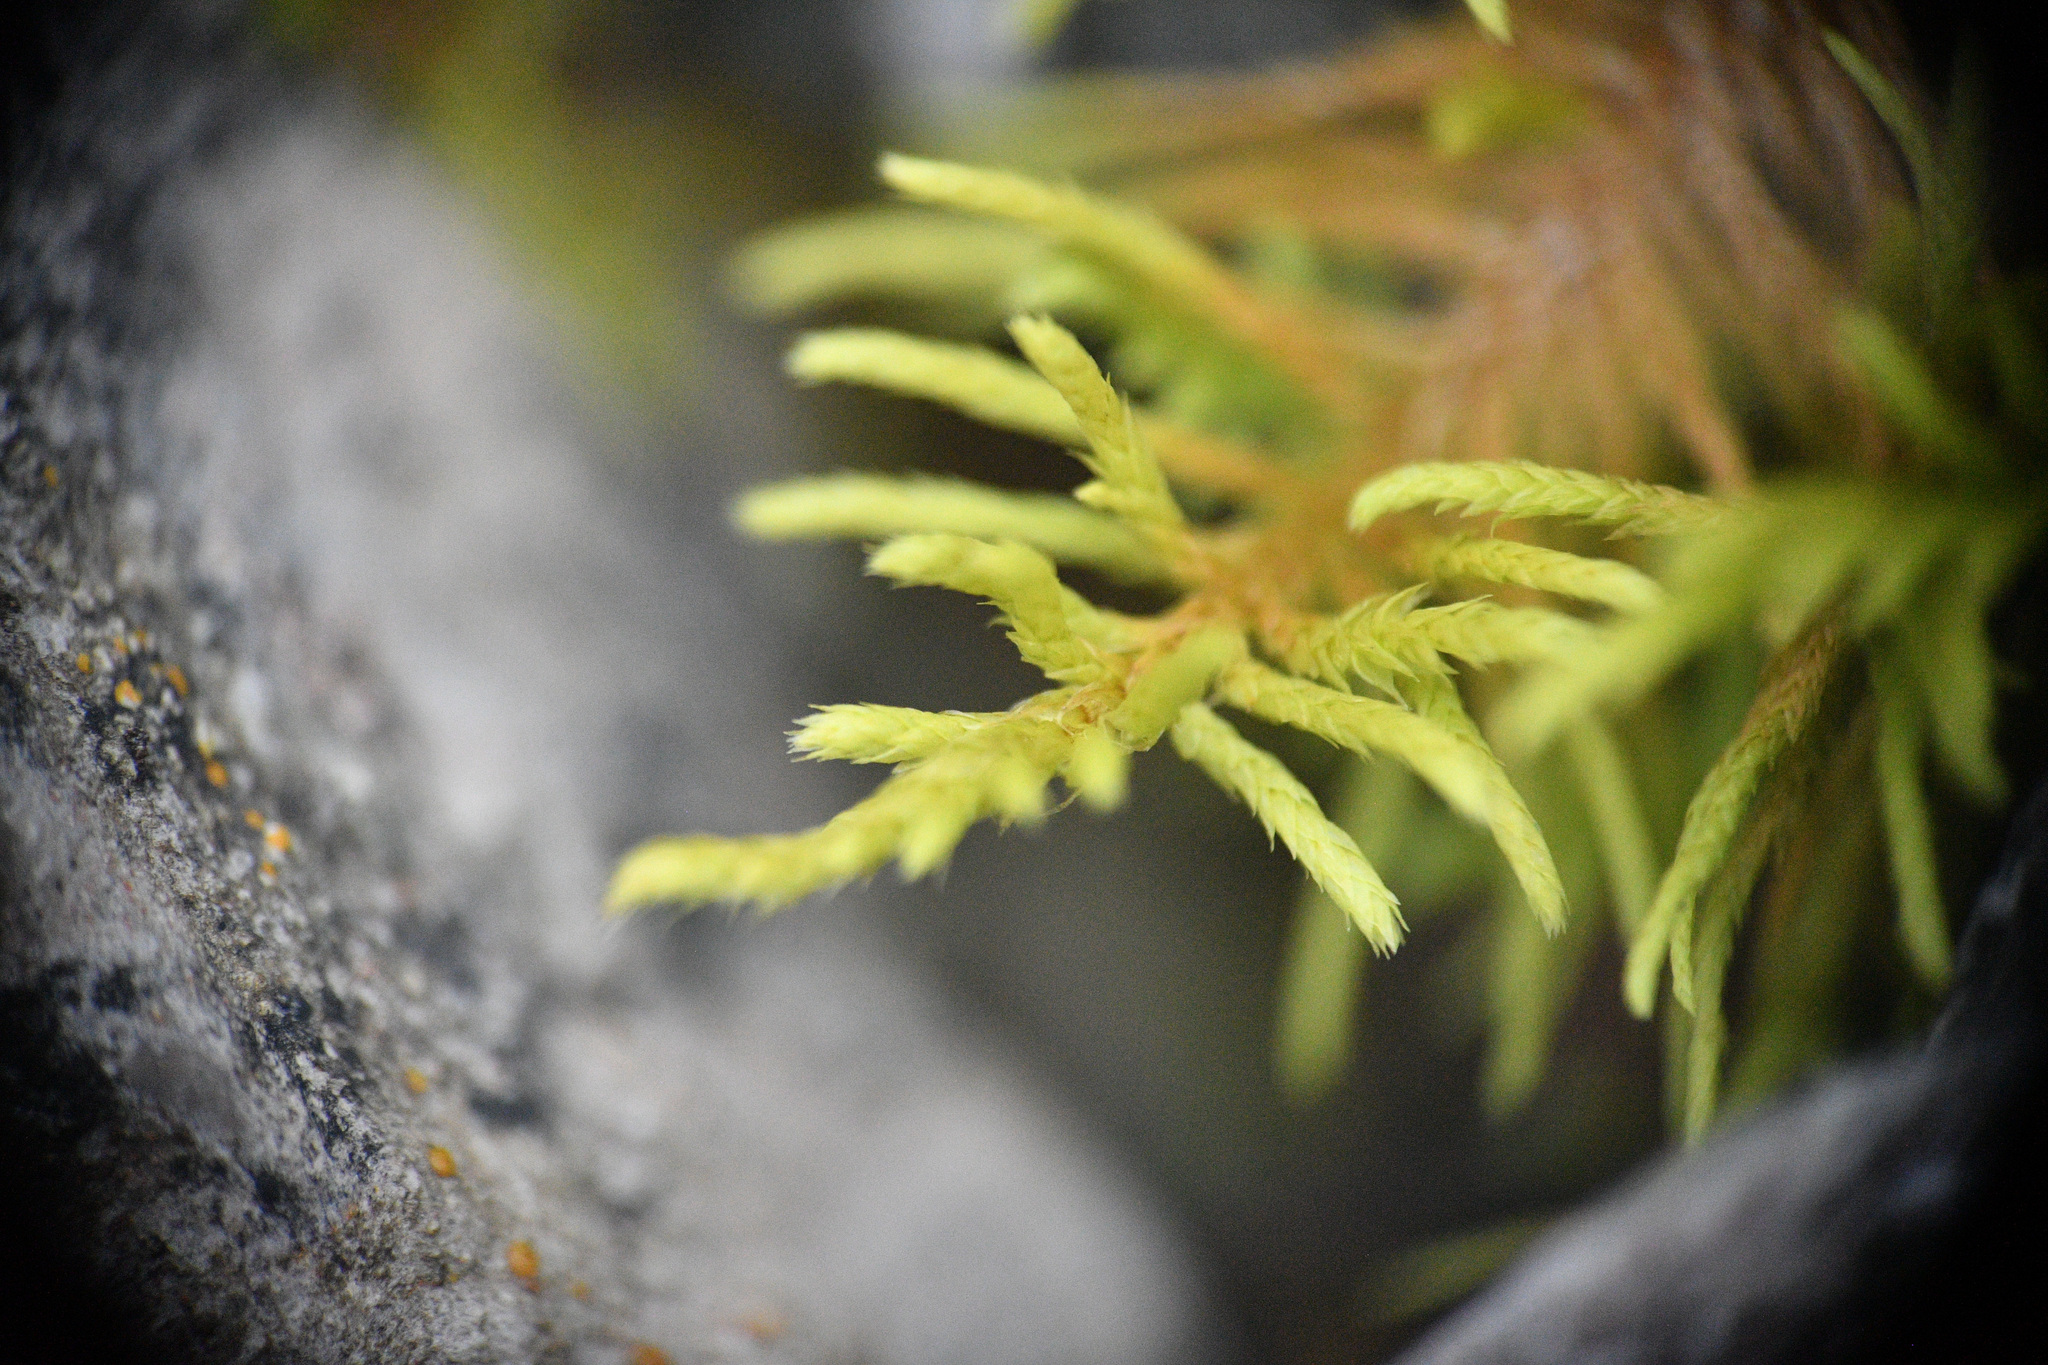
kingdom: Plantae
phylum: Bryophyta
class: Bryopsida
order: Hypnales
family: Thuidiaceae
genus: Abietinella
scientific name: Abietinella abietina
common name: Wiry fern moss
